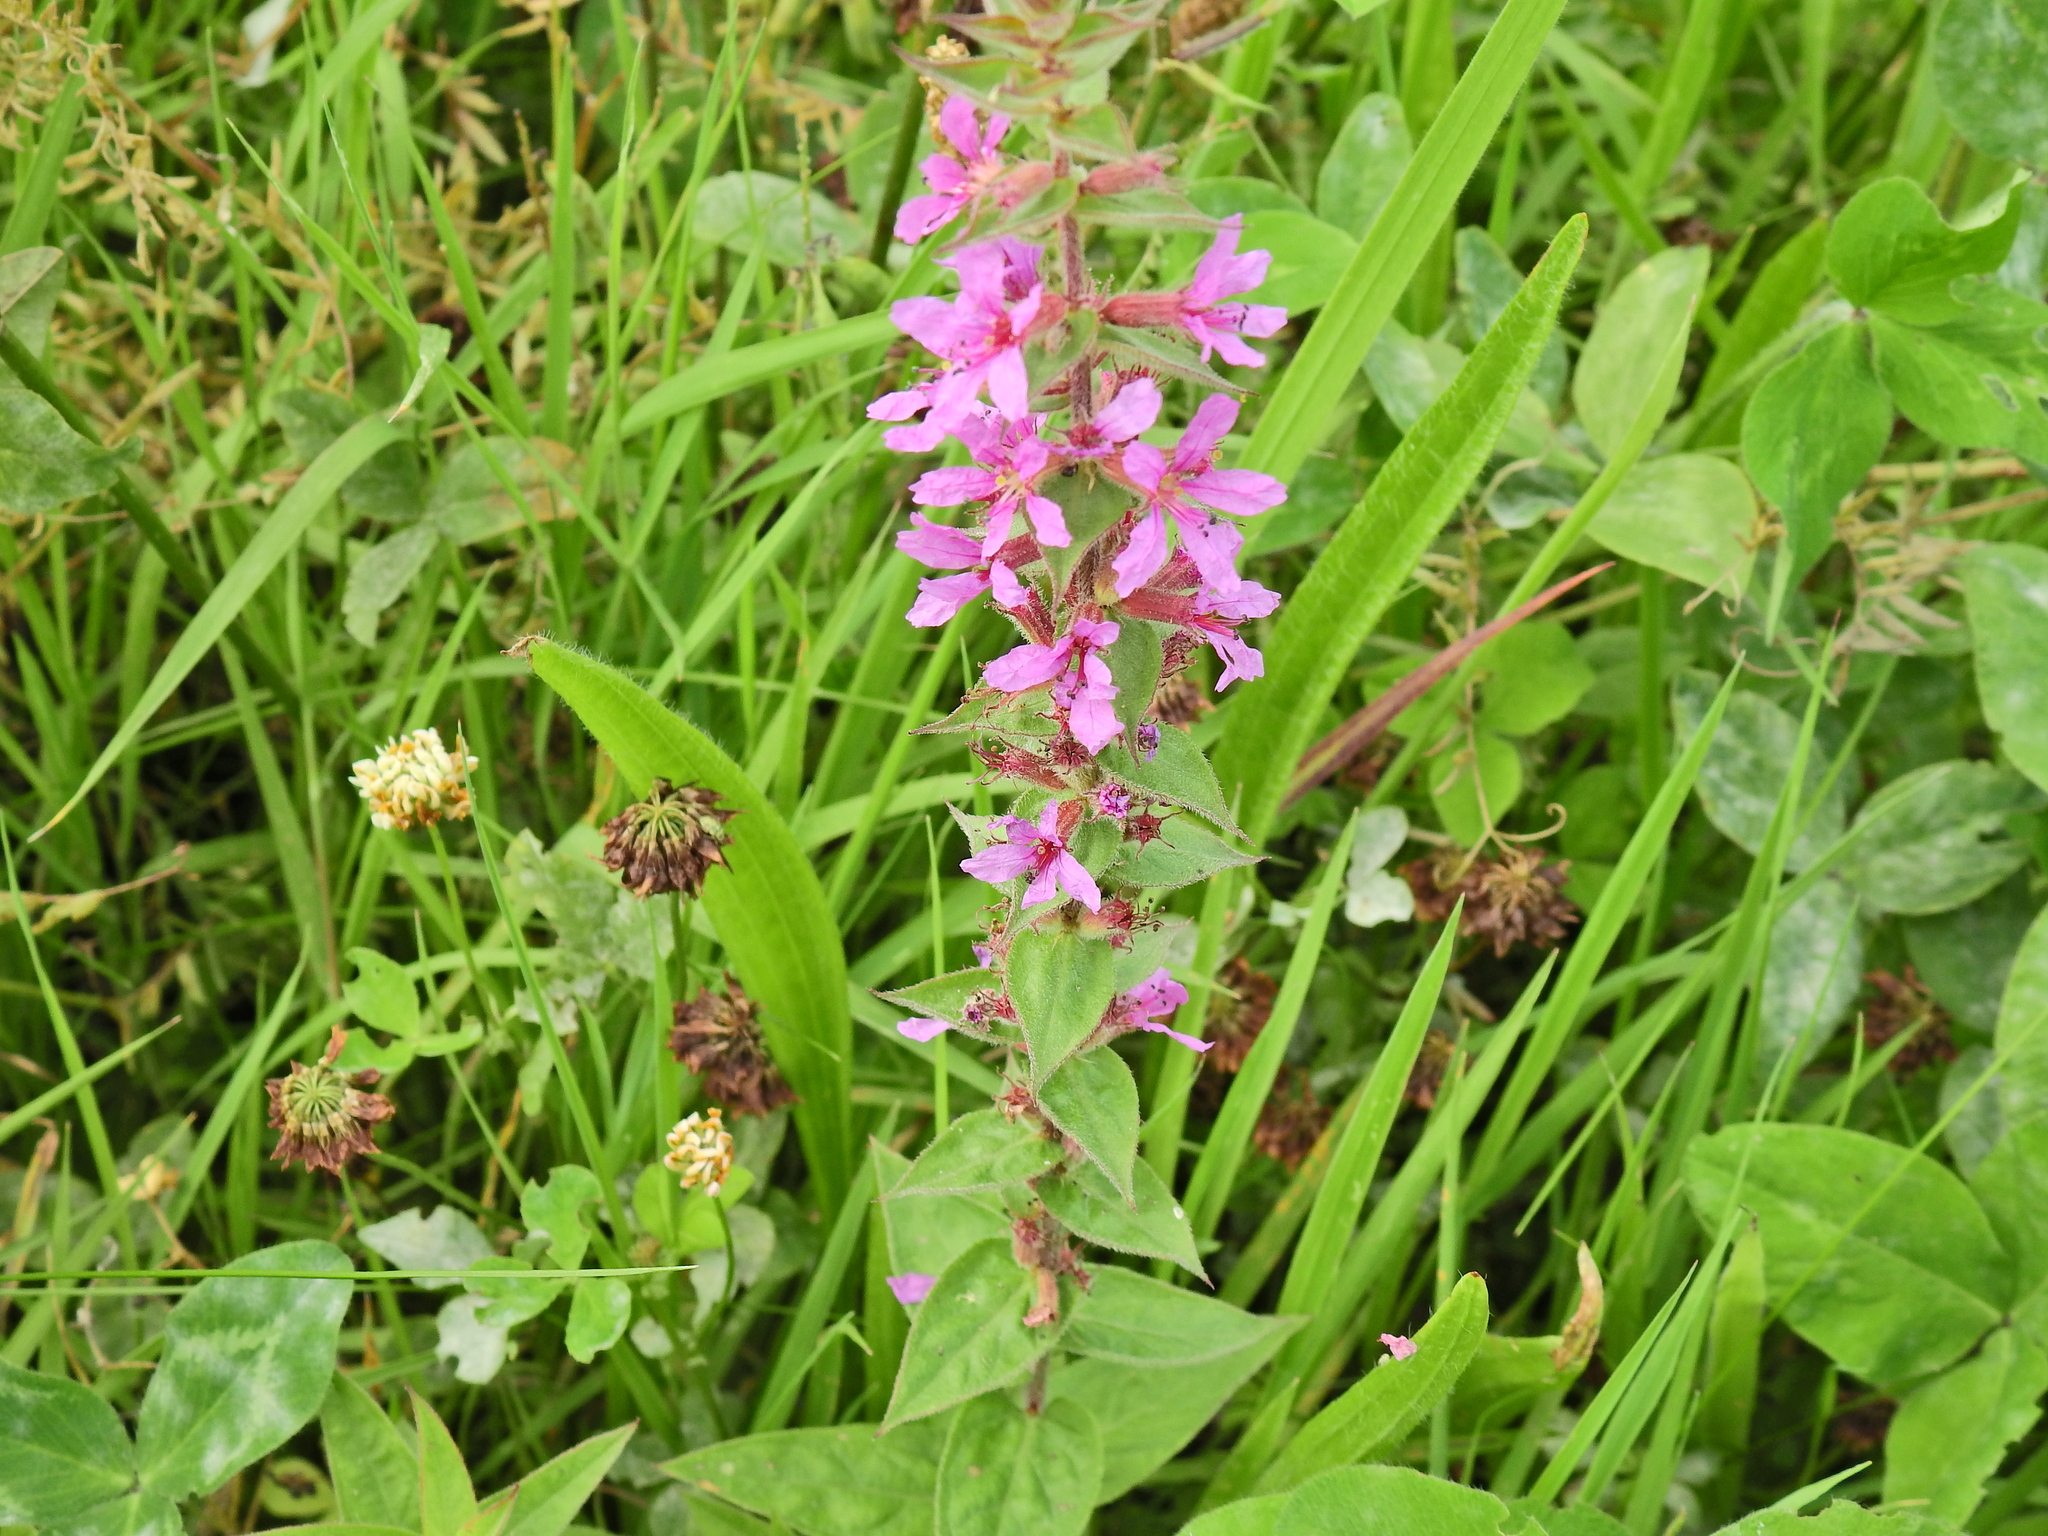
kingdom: Plantae
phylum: Tracheophyta
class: Magnoliopsida
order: Myrtales
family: Lythraceae
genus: Lythrum
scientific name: Lythrum salicaria
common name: Purple loosestrife
